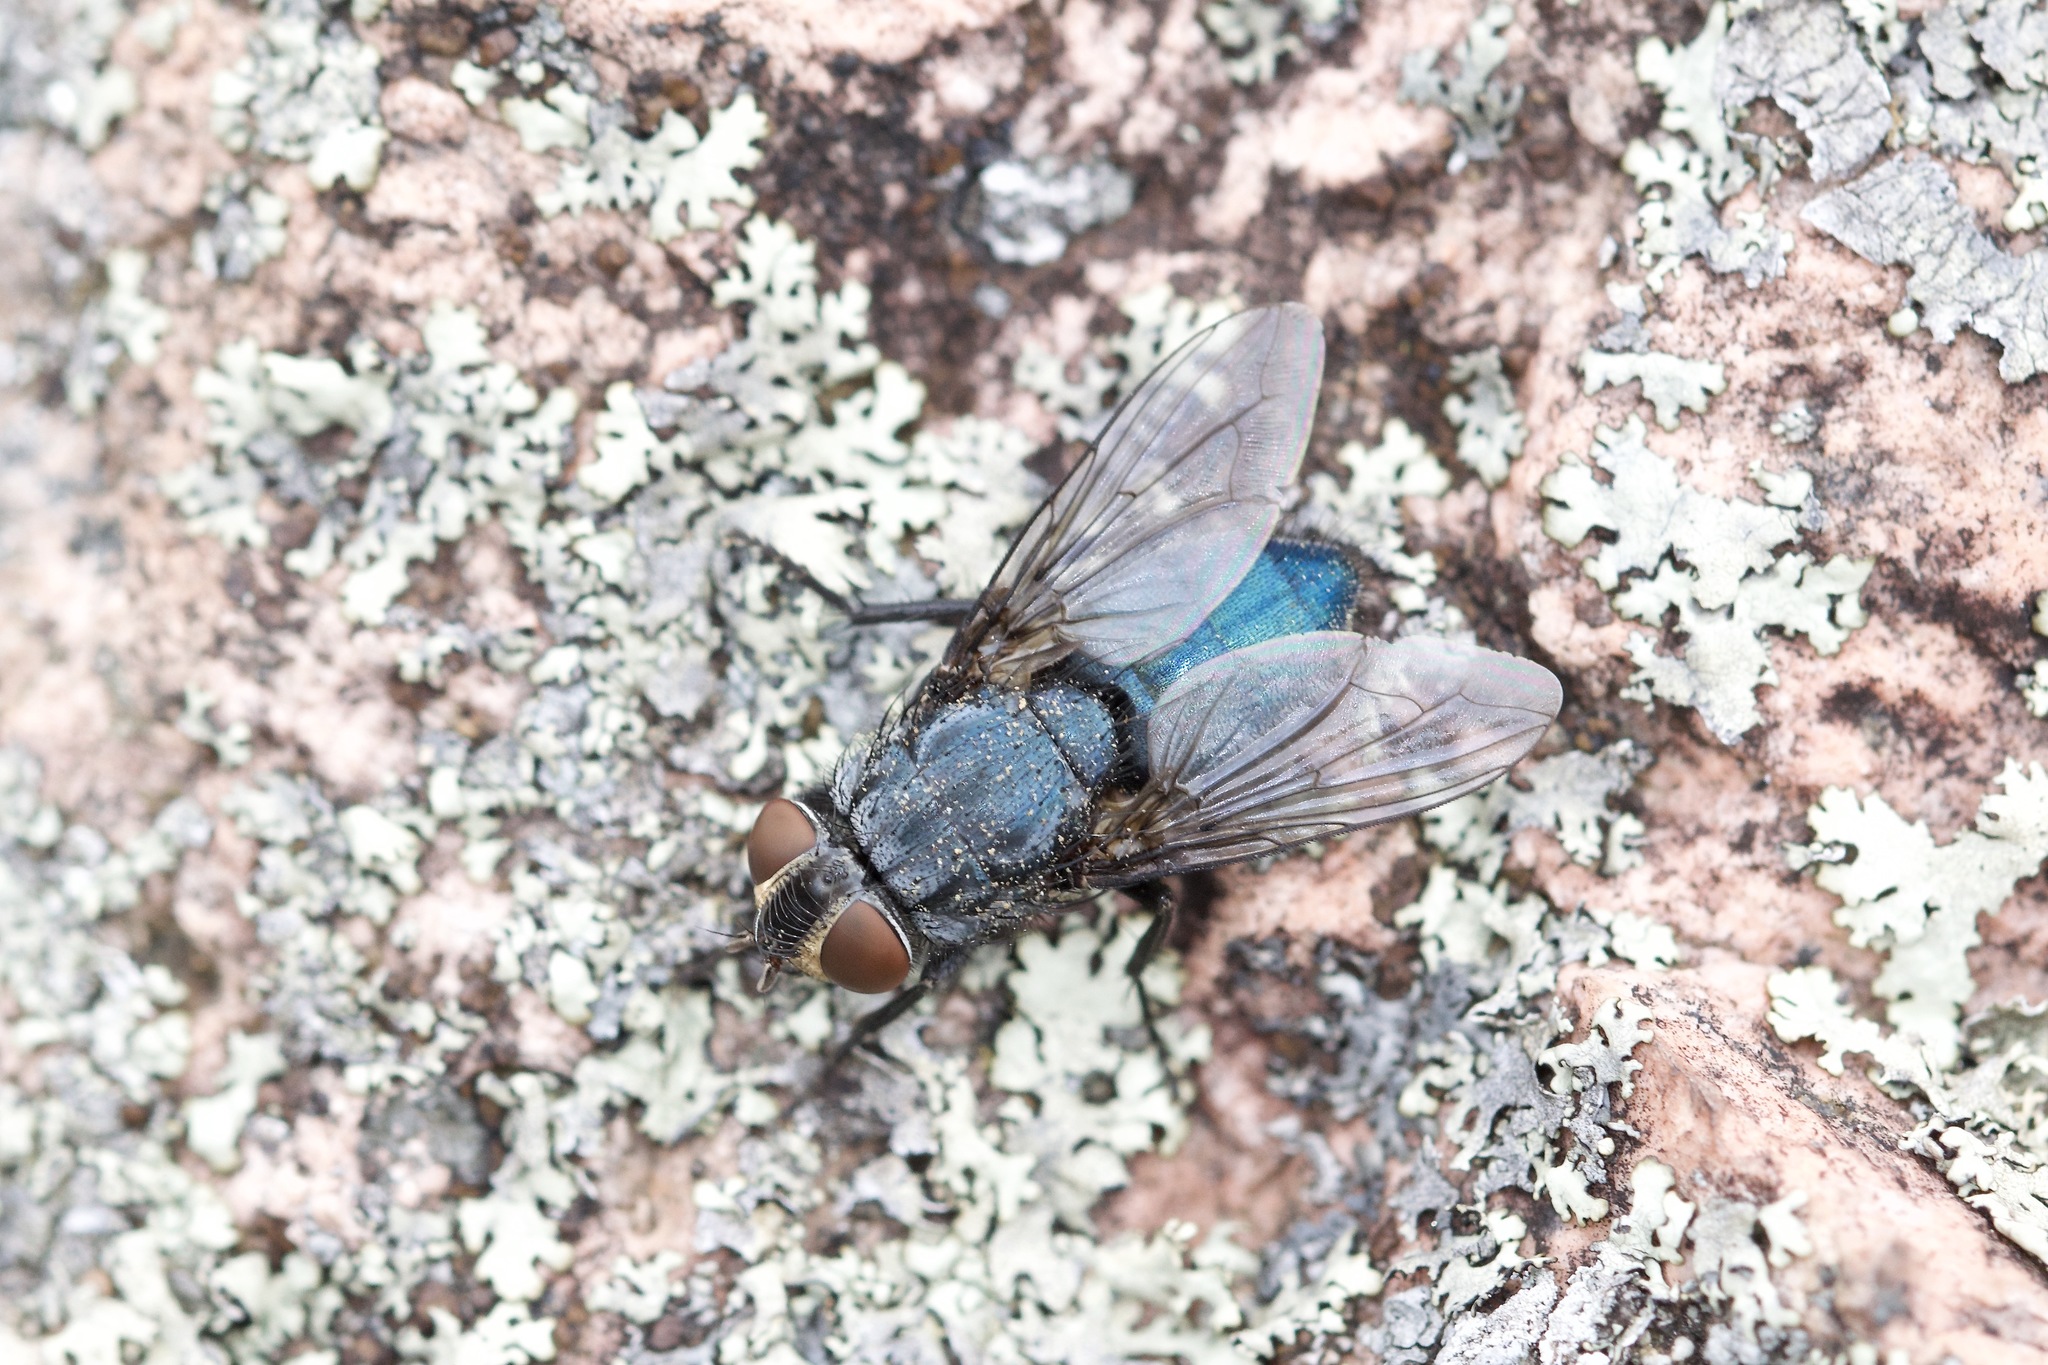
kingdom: Animalia
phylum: Arthropoda
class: Insecta
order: Diptera
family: Calliphoridae
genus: Cynomya
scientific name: Cynomya cadaverina
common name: Shiny blue bottle fly
